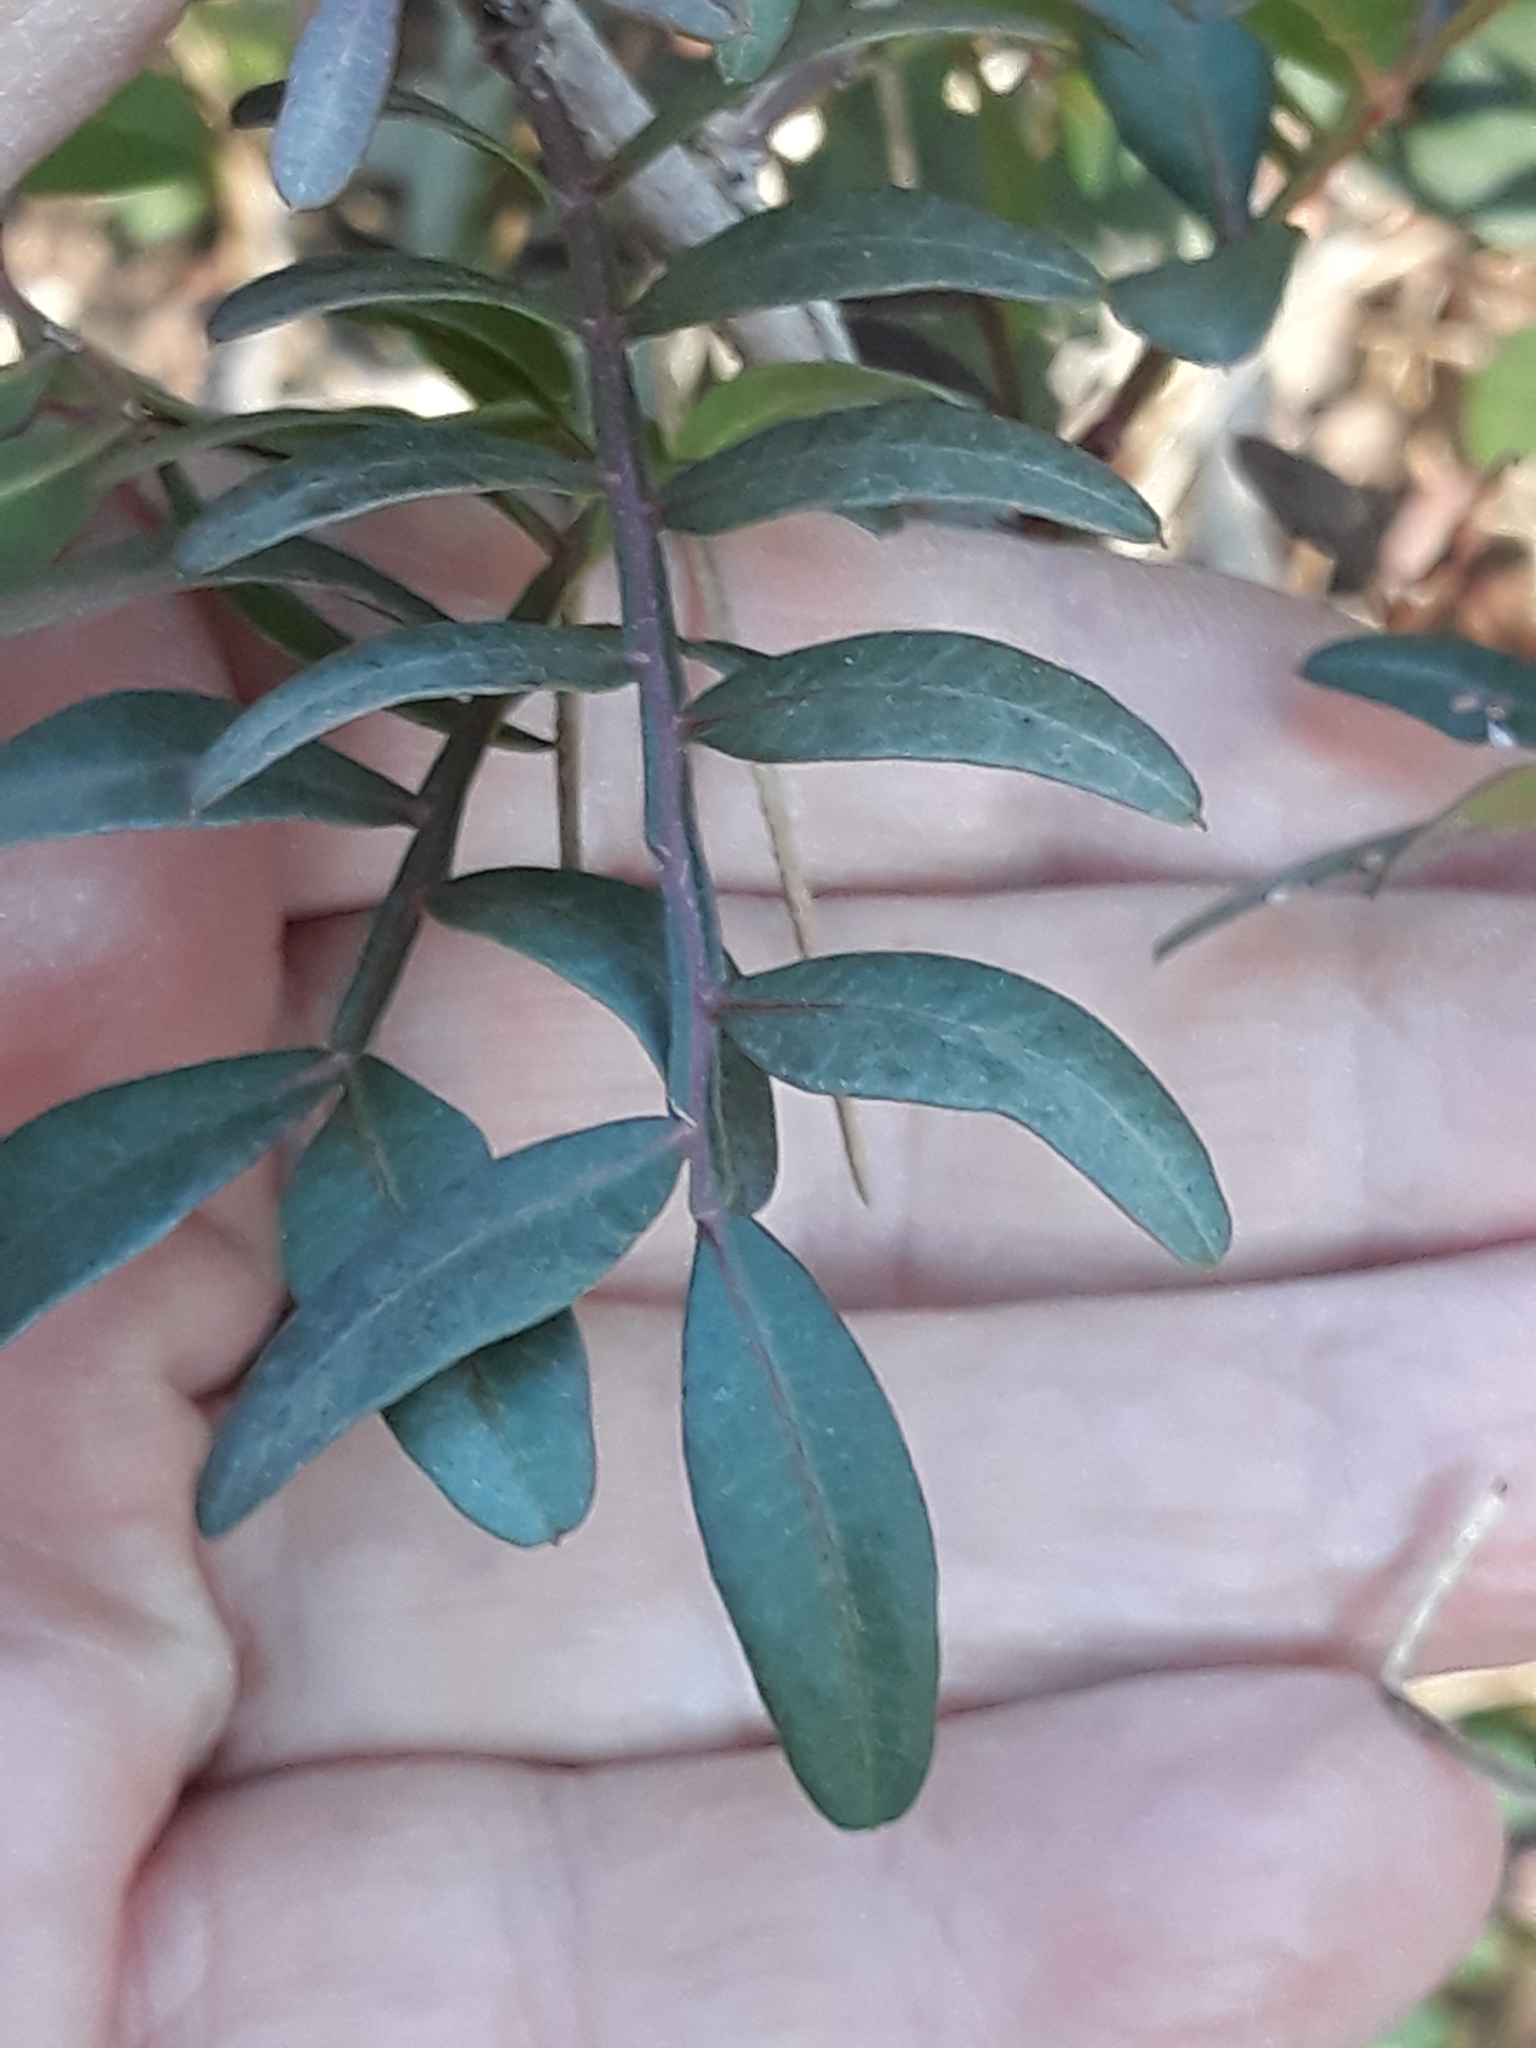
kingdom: Plantae
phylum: Tracheophyta
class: Magnoliopsida
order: Sapindales
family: Anacardiaceae
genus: Pistacia
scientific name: Pistacia lentiscus
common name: Lentisk
